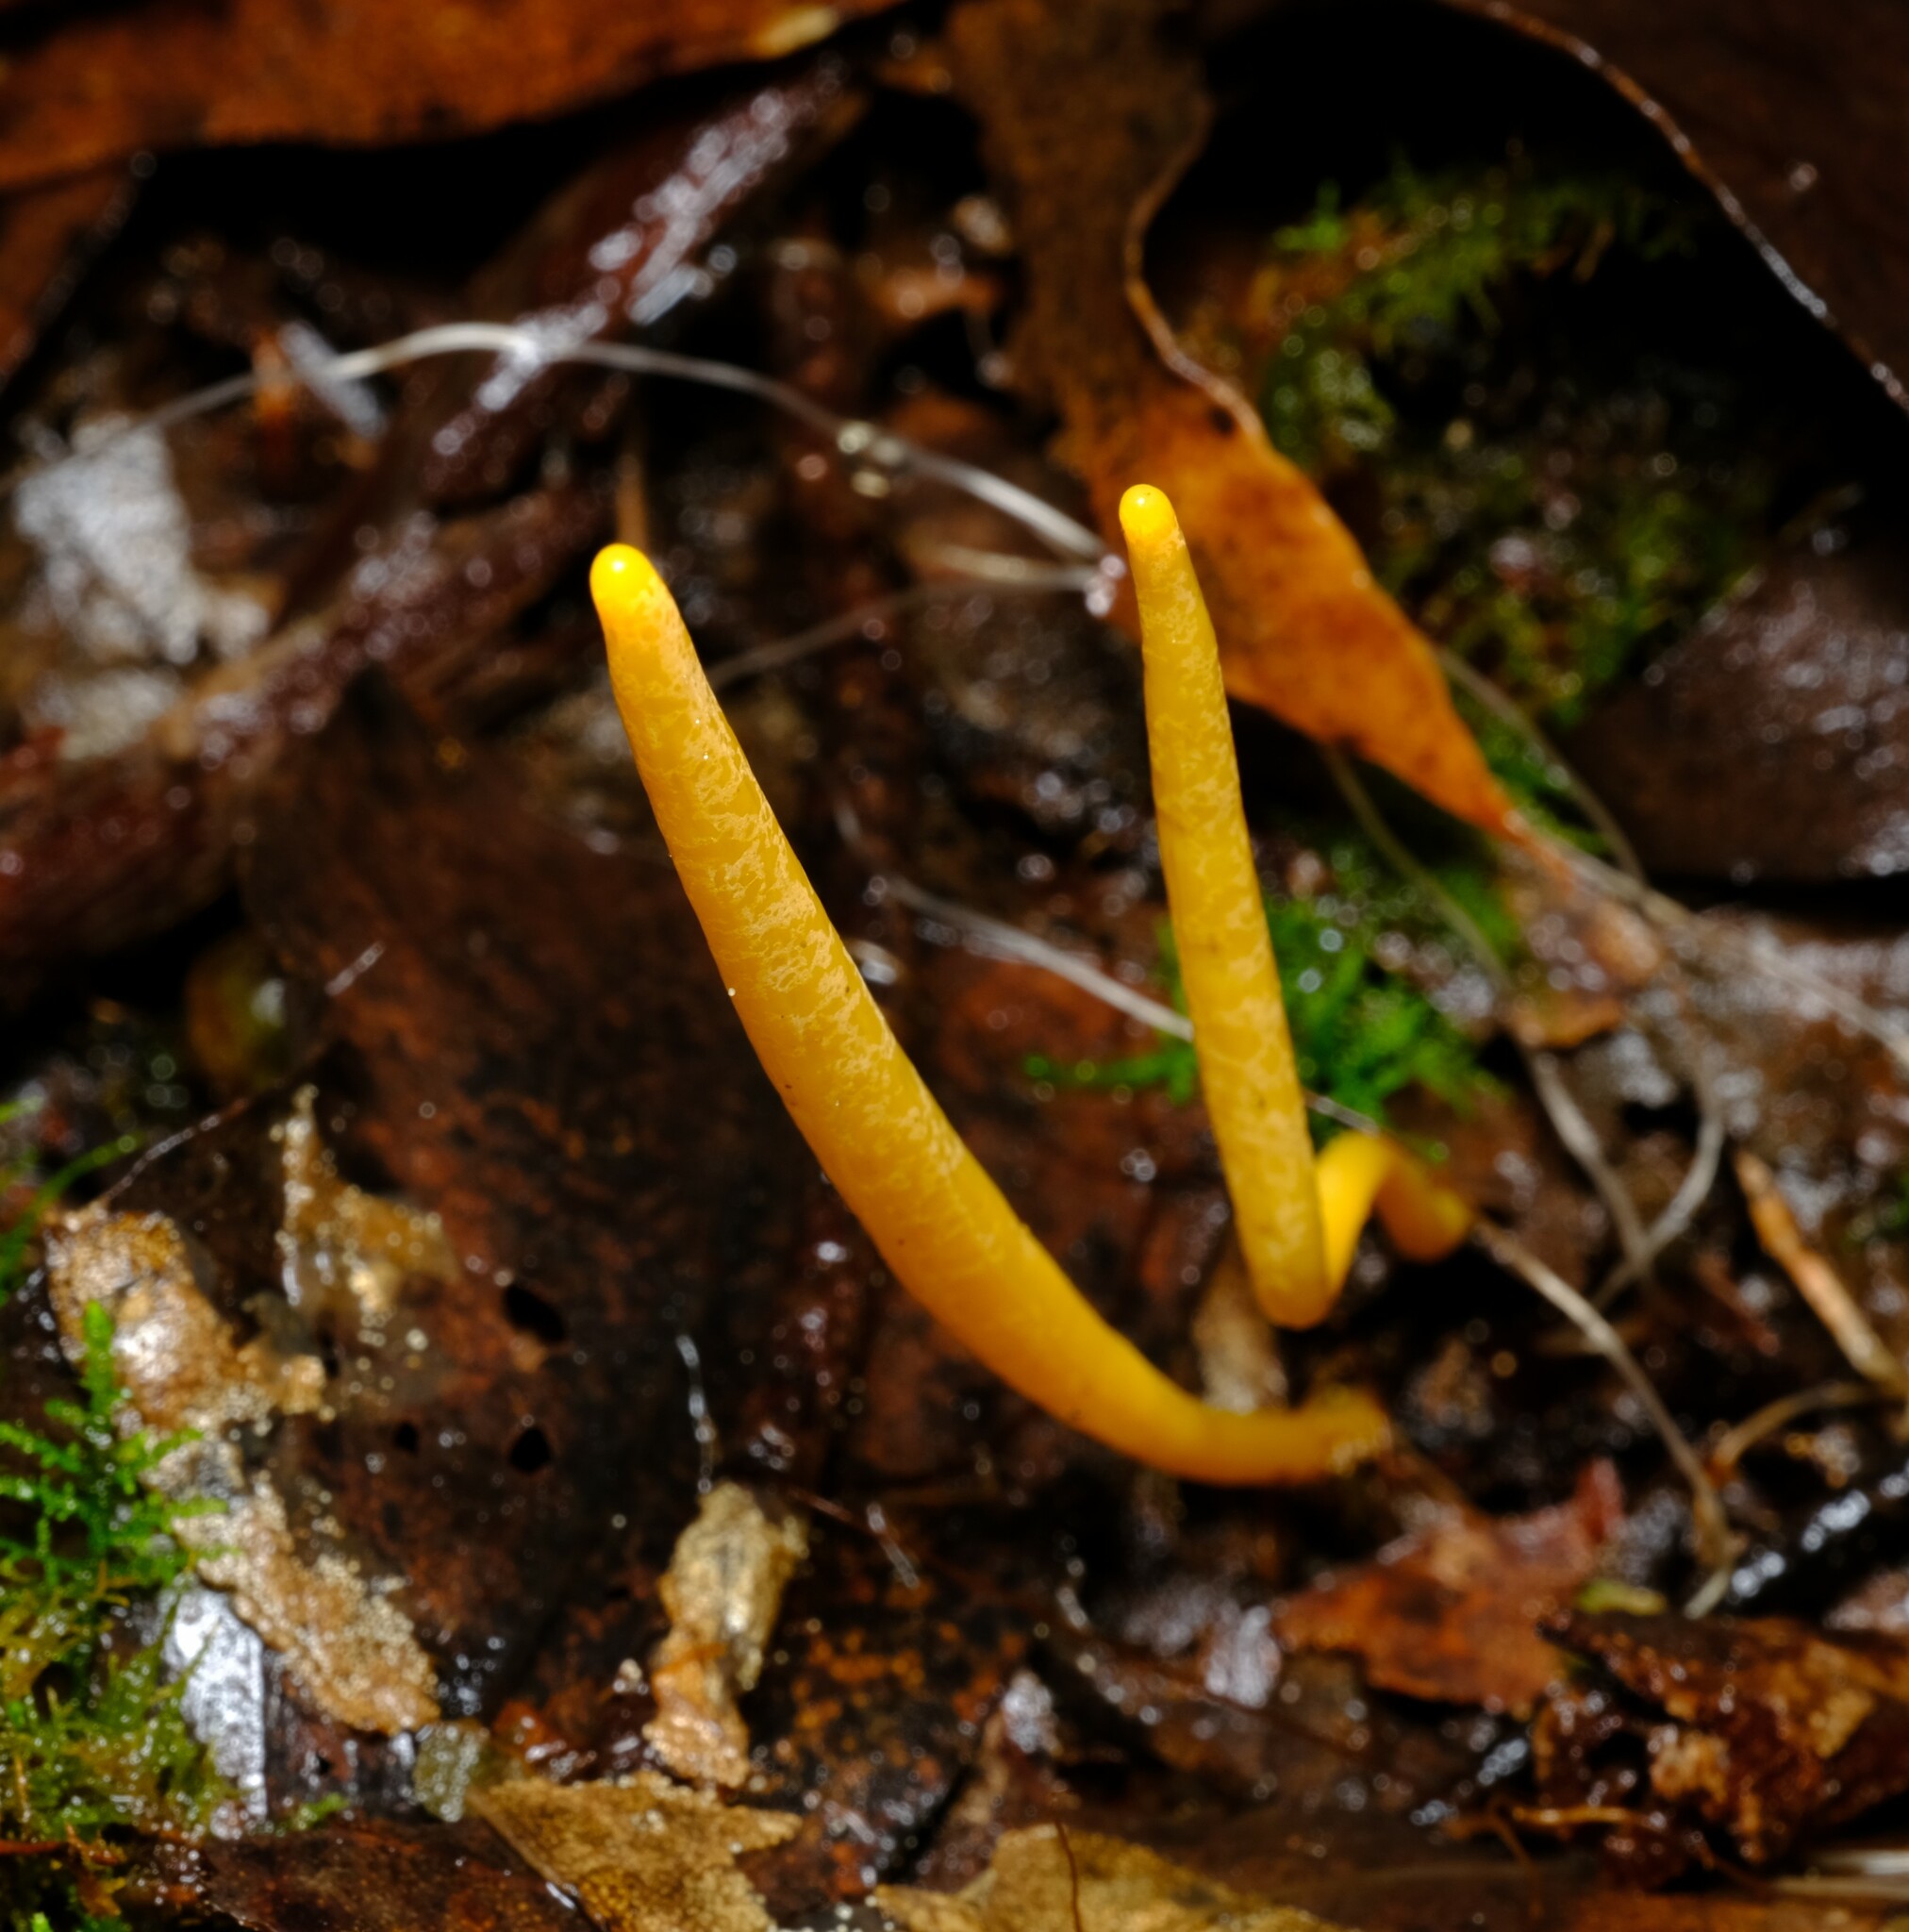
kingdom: Fungi
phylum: Basidiomycota
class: Agaricomycetes
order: Agaricales
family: Clavariaceae
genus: Clavulinopsis
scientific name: Clavulinopsis amoena
